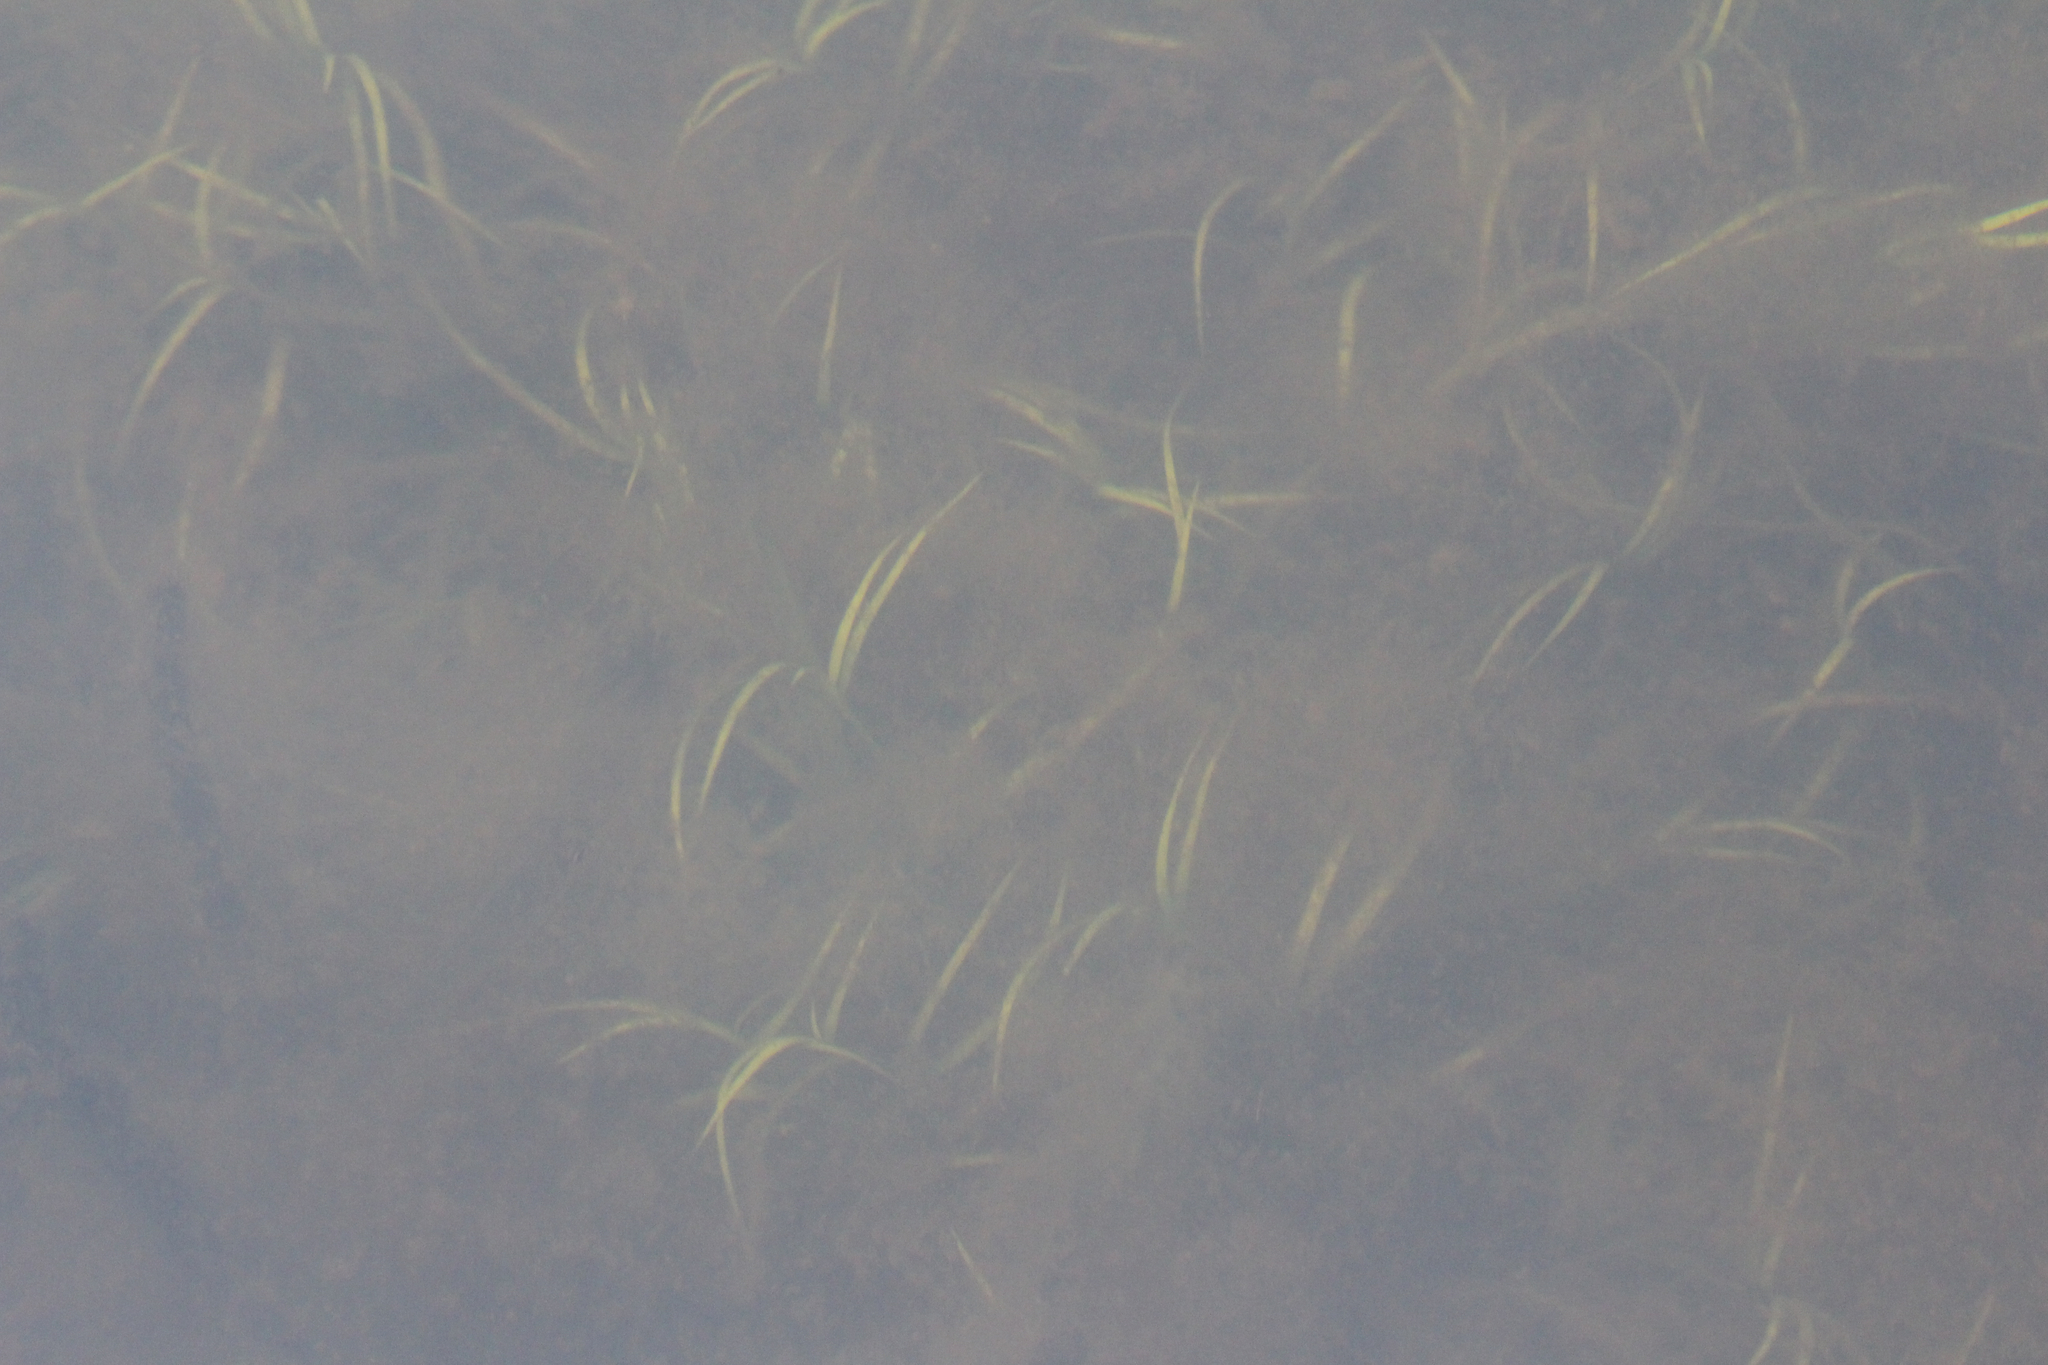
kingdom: Plantae
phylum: Tracheophyta
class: Liliopsida
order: Poales
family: Juncaceae
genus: Juncus
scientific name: Juncus repens
